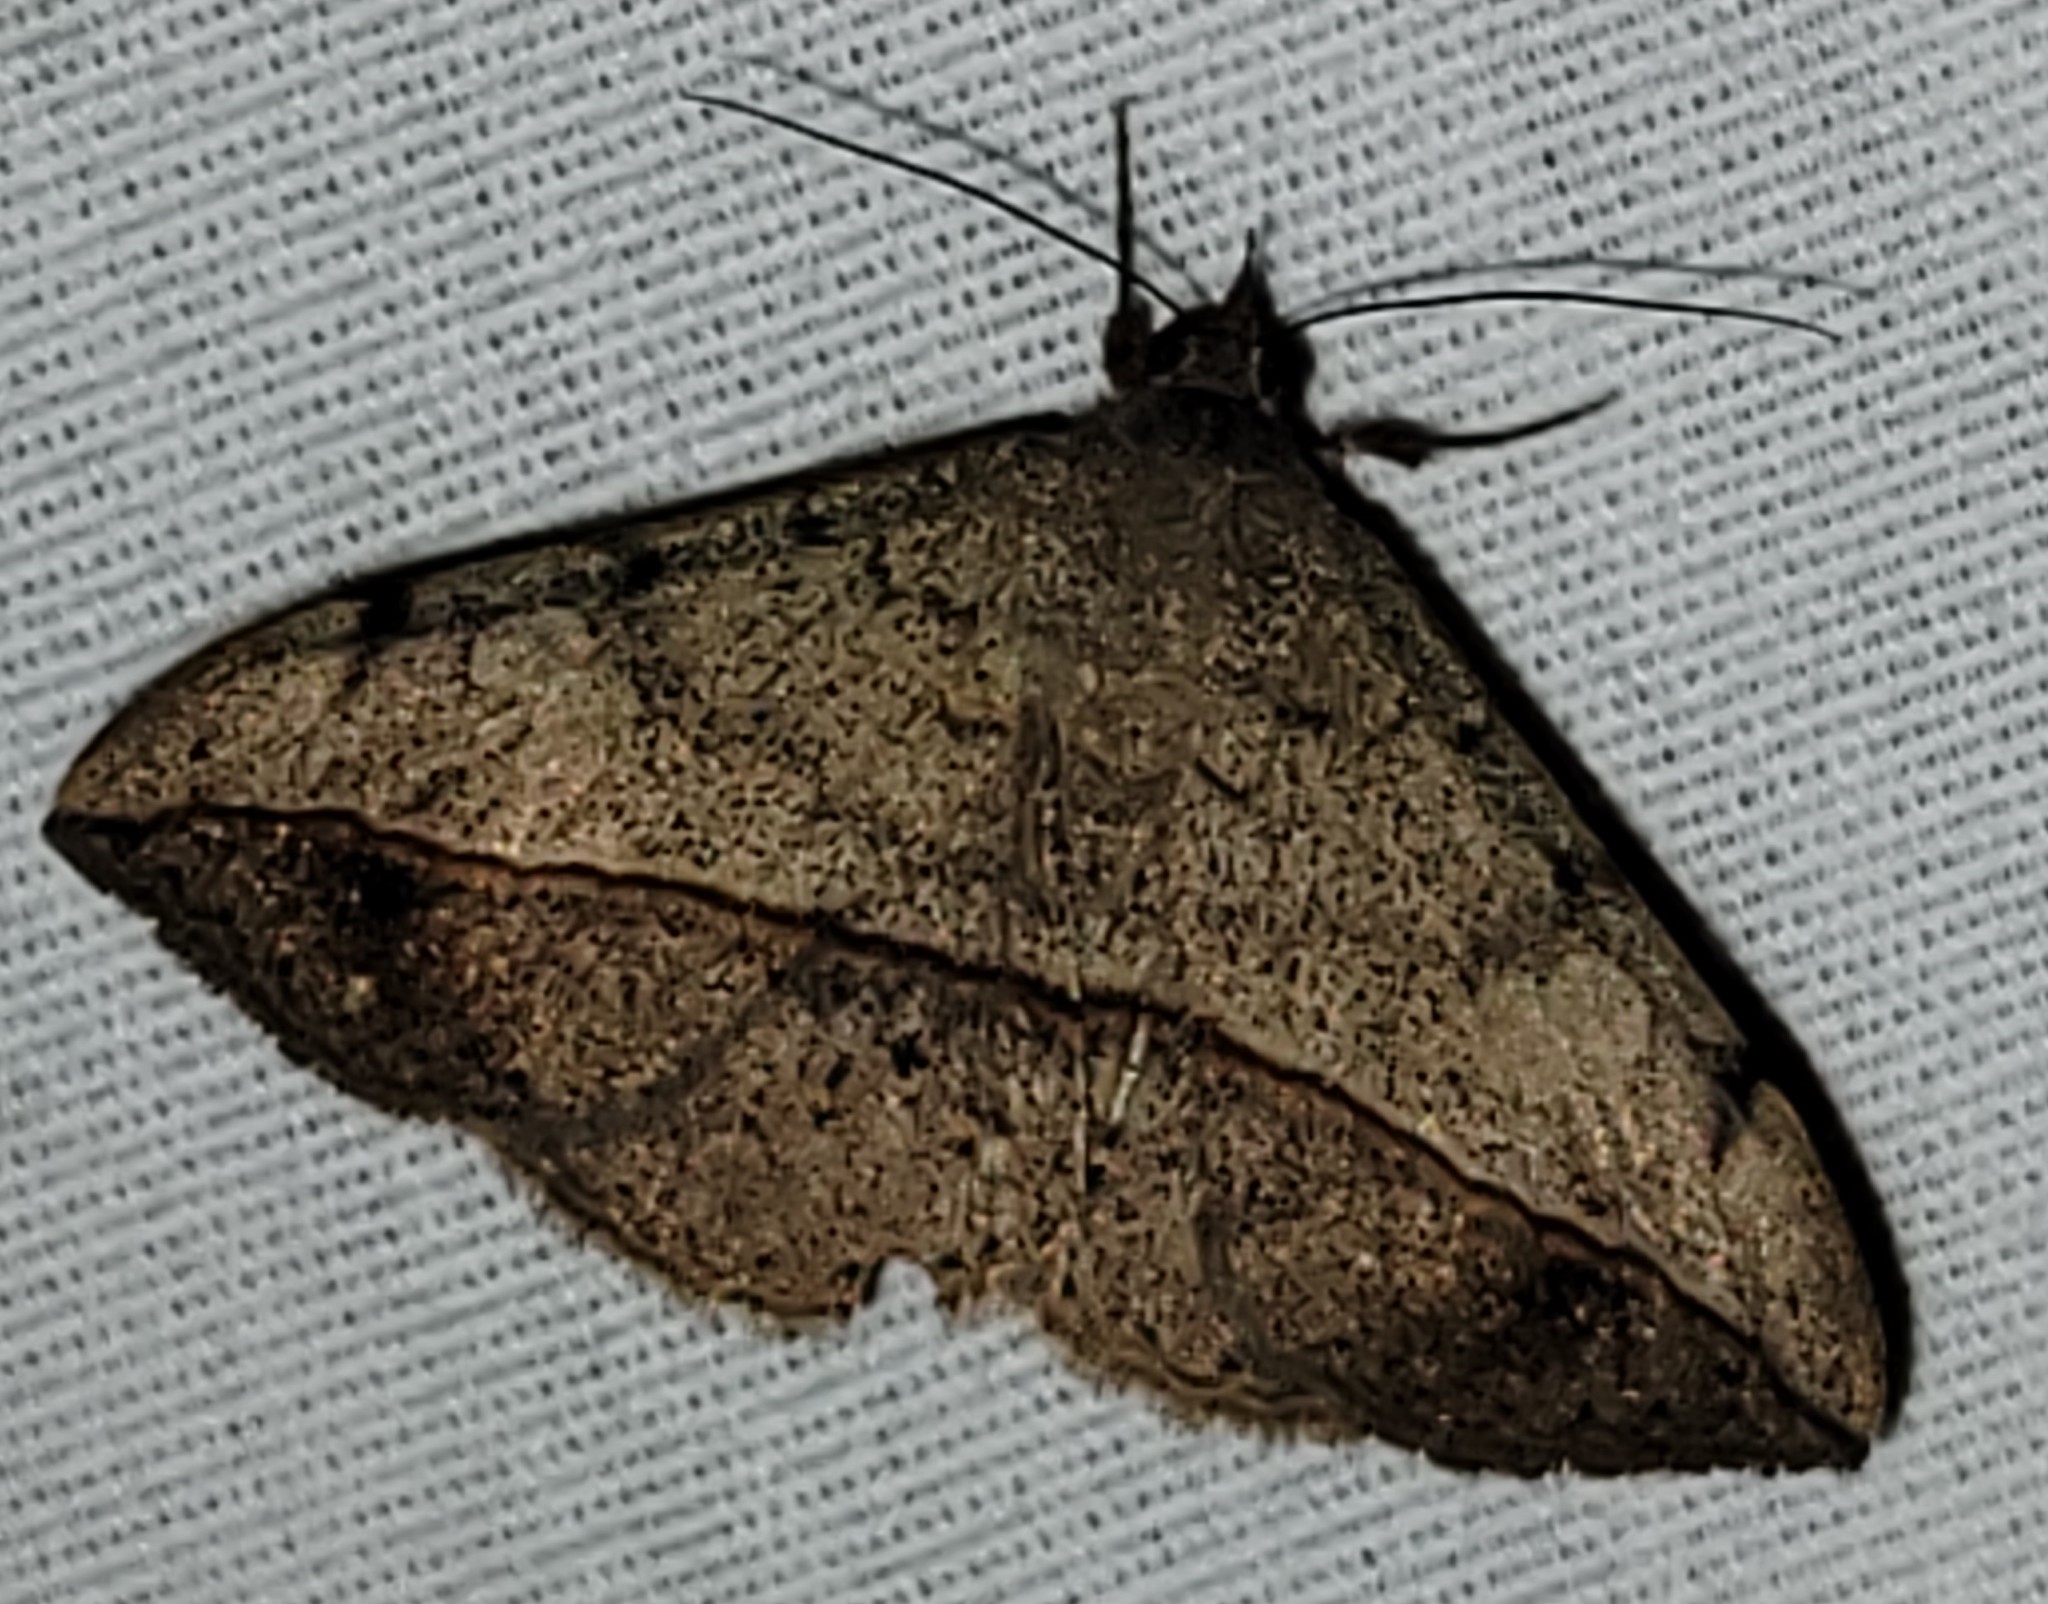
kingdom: Animalia
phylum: Arthropoda
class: Insecta
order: Lepidoptera
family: Erebidae
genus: Anticarsia
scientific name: Anticarsia gemmatalis
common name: Cutworm moth
